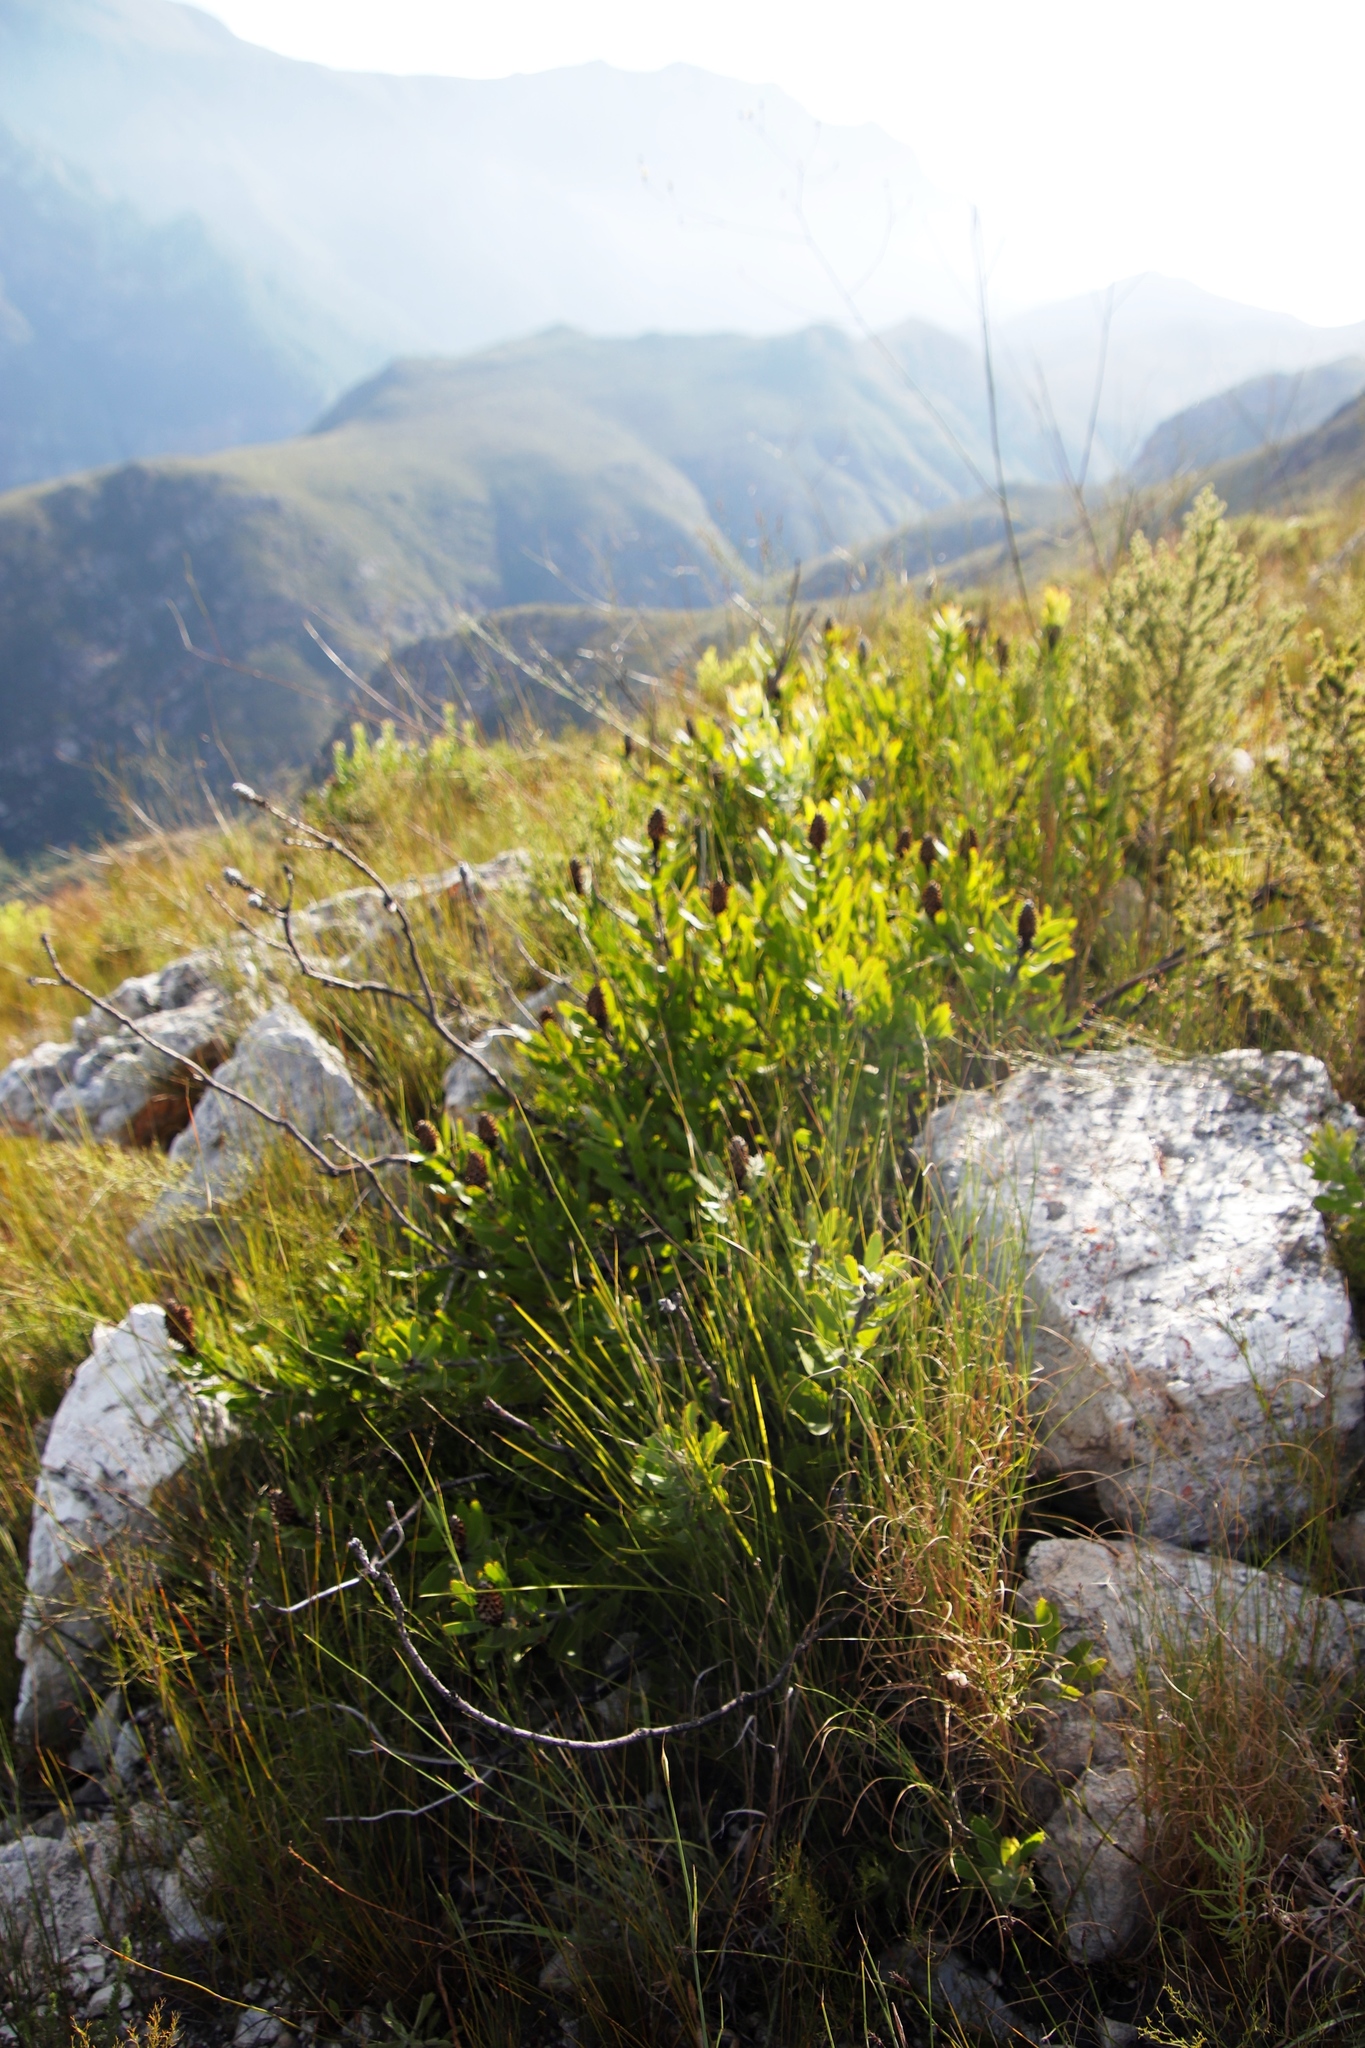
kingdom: Plantae
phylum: Tracheophyta
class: Magnoliopsida
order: Proteales
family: Proteaceae
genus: Leucospermum
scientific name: Leucospermum cuneiforme
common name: Common pincushion
